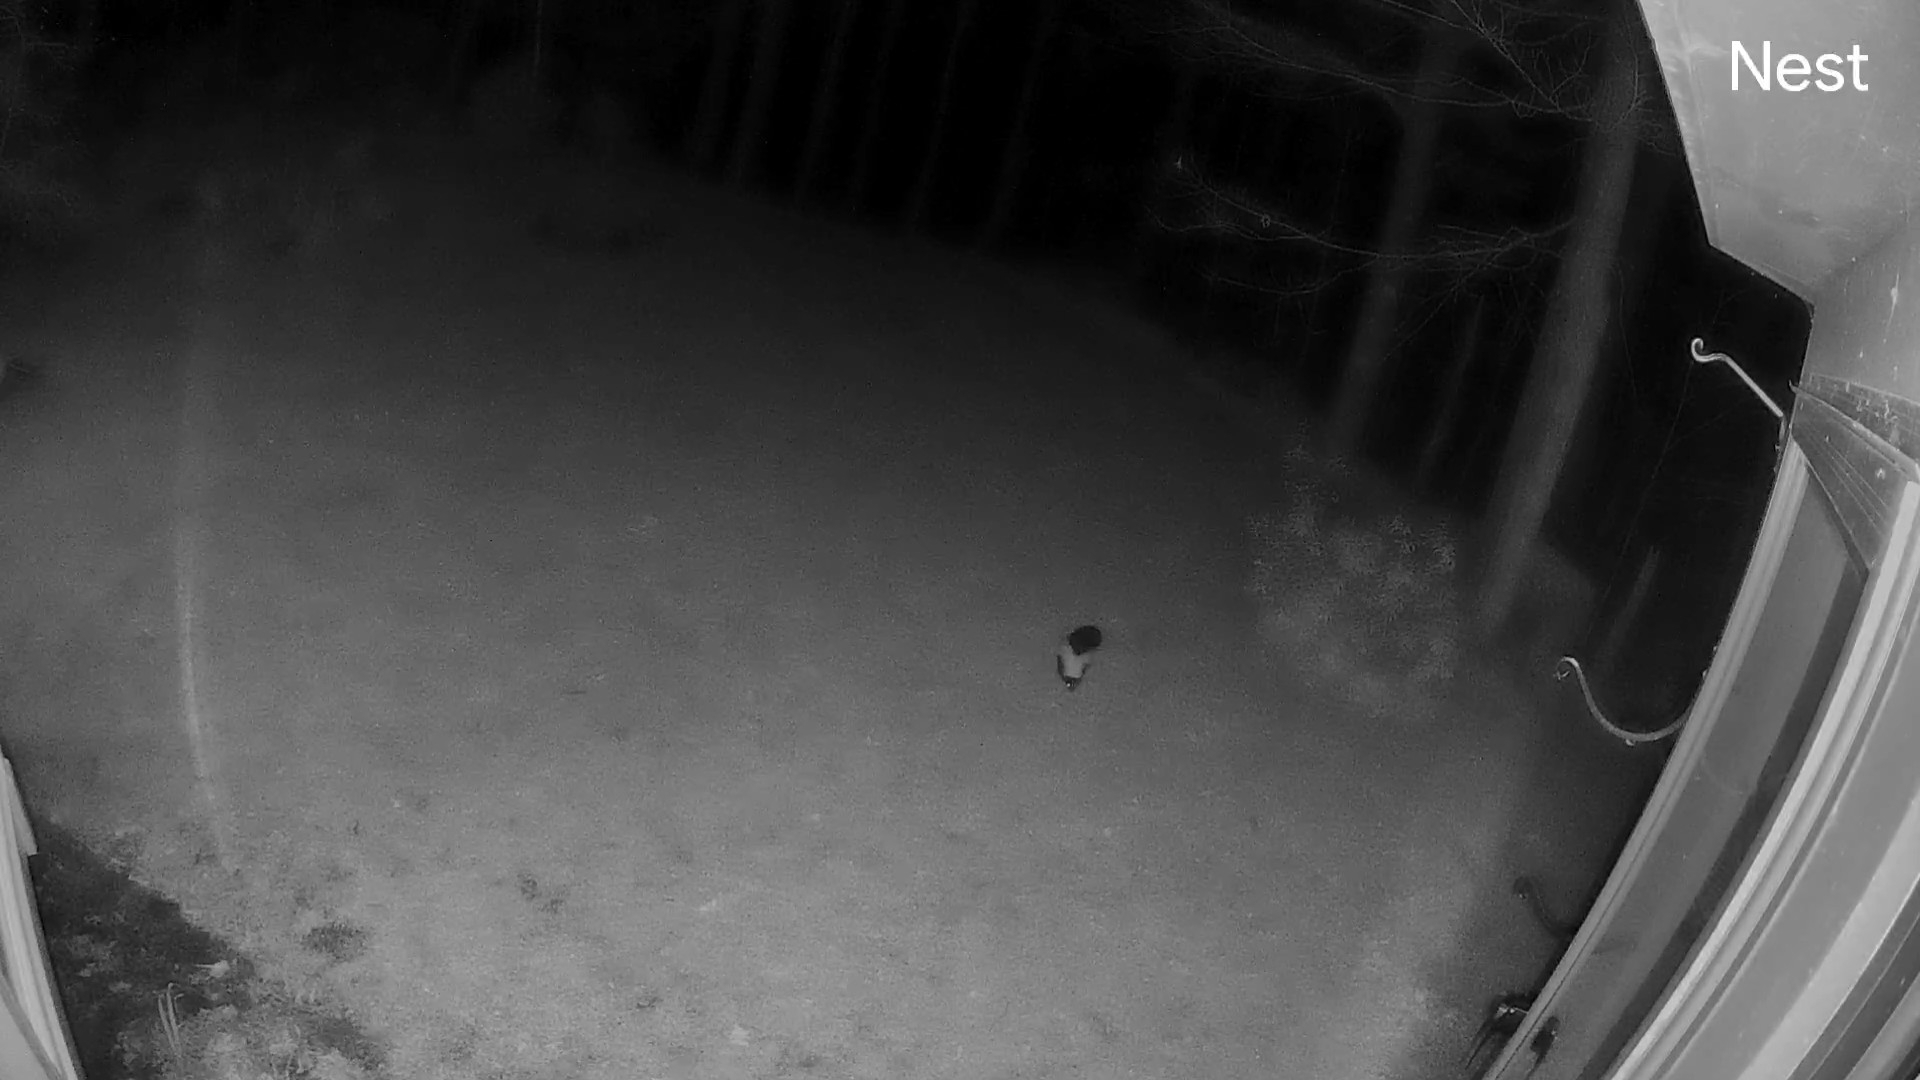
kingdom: Animalia
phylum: Chordata
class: Mammalia
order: Carnivora
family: Mephitidae
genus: Mephitis
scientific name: Mephitis mephitis
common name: Striped skunk
